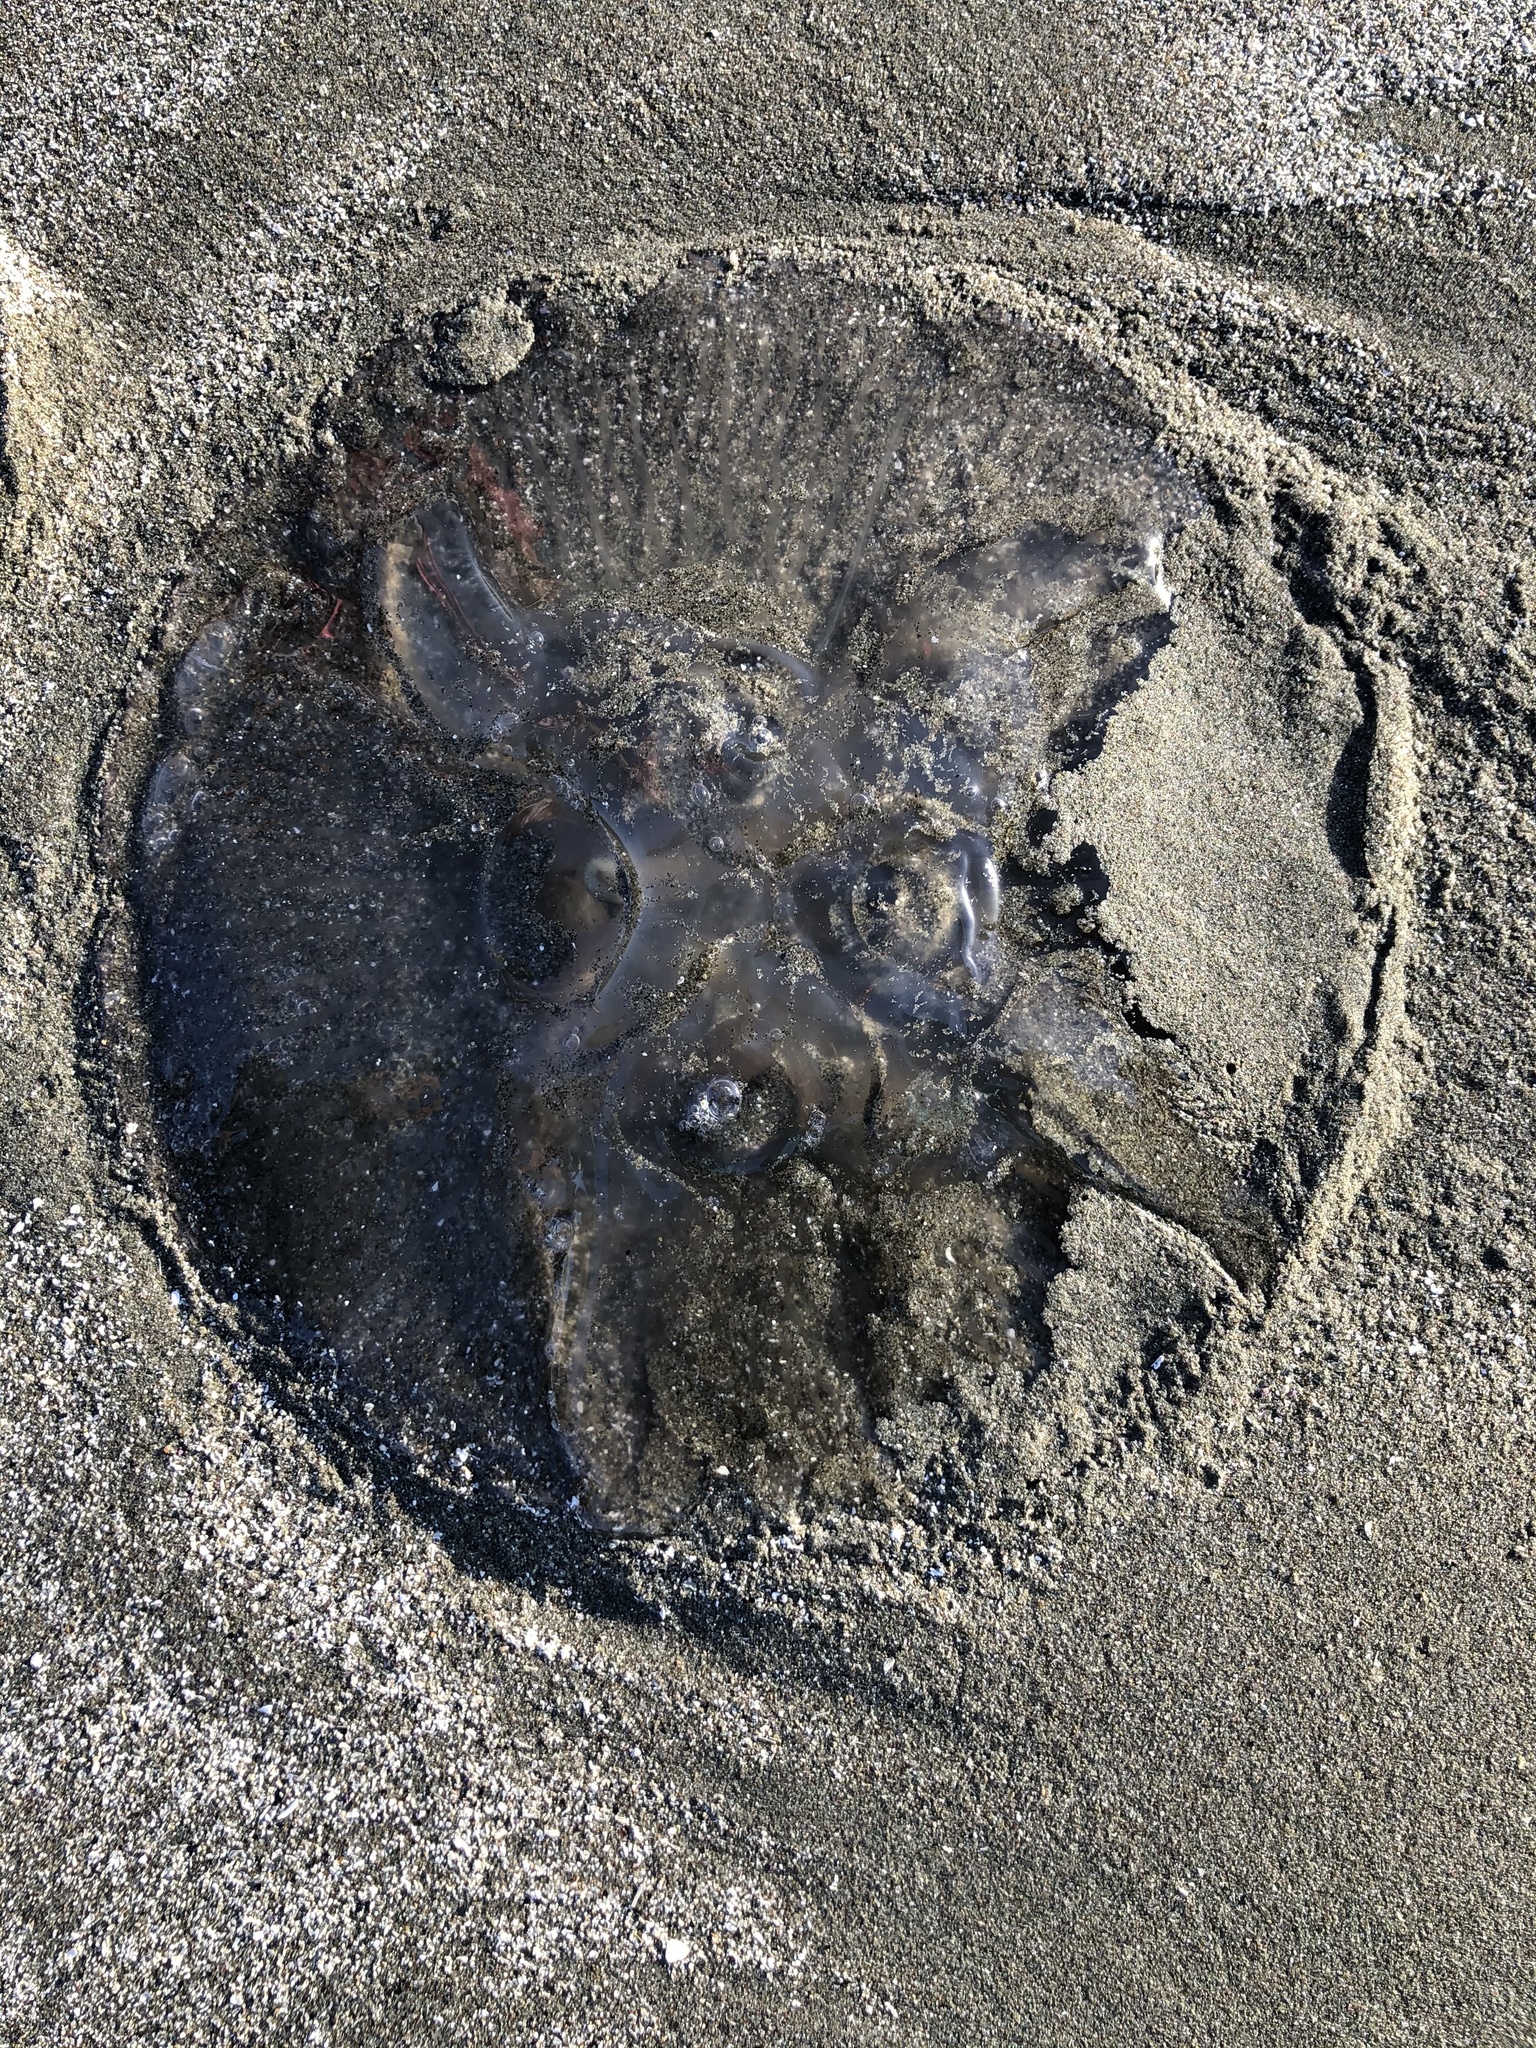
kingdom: Animalia
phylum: Cnidaria
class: Scyphozoa
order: Semaeostomeae
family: Ulmaridae
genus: Aurelia
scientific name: Aurelia labiata
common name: Pacific moon jelly
